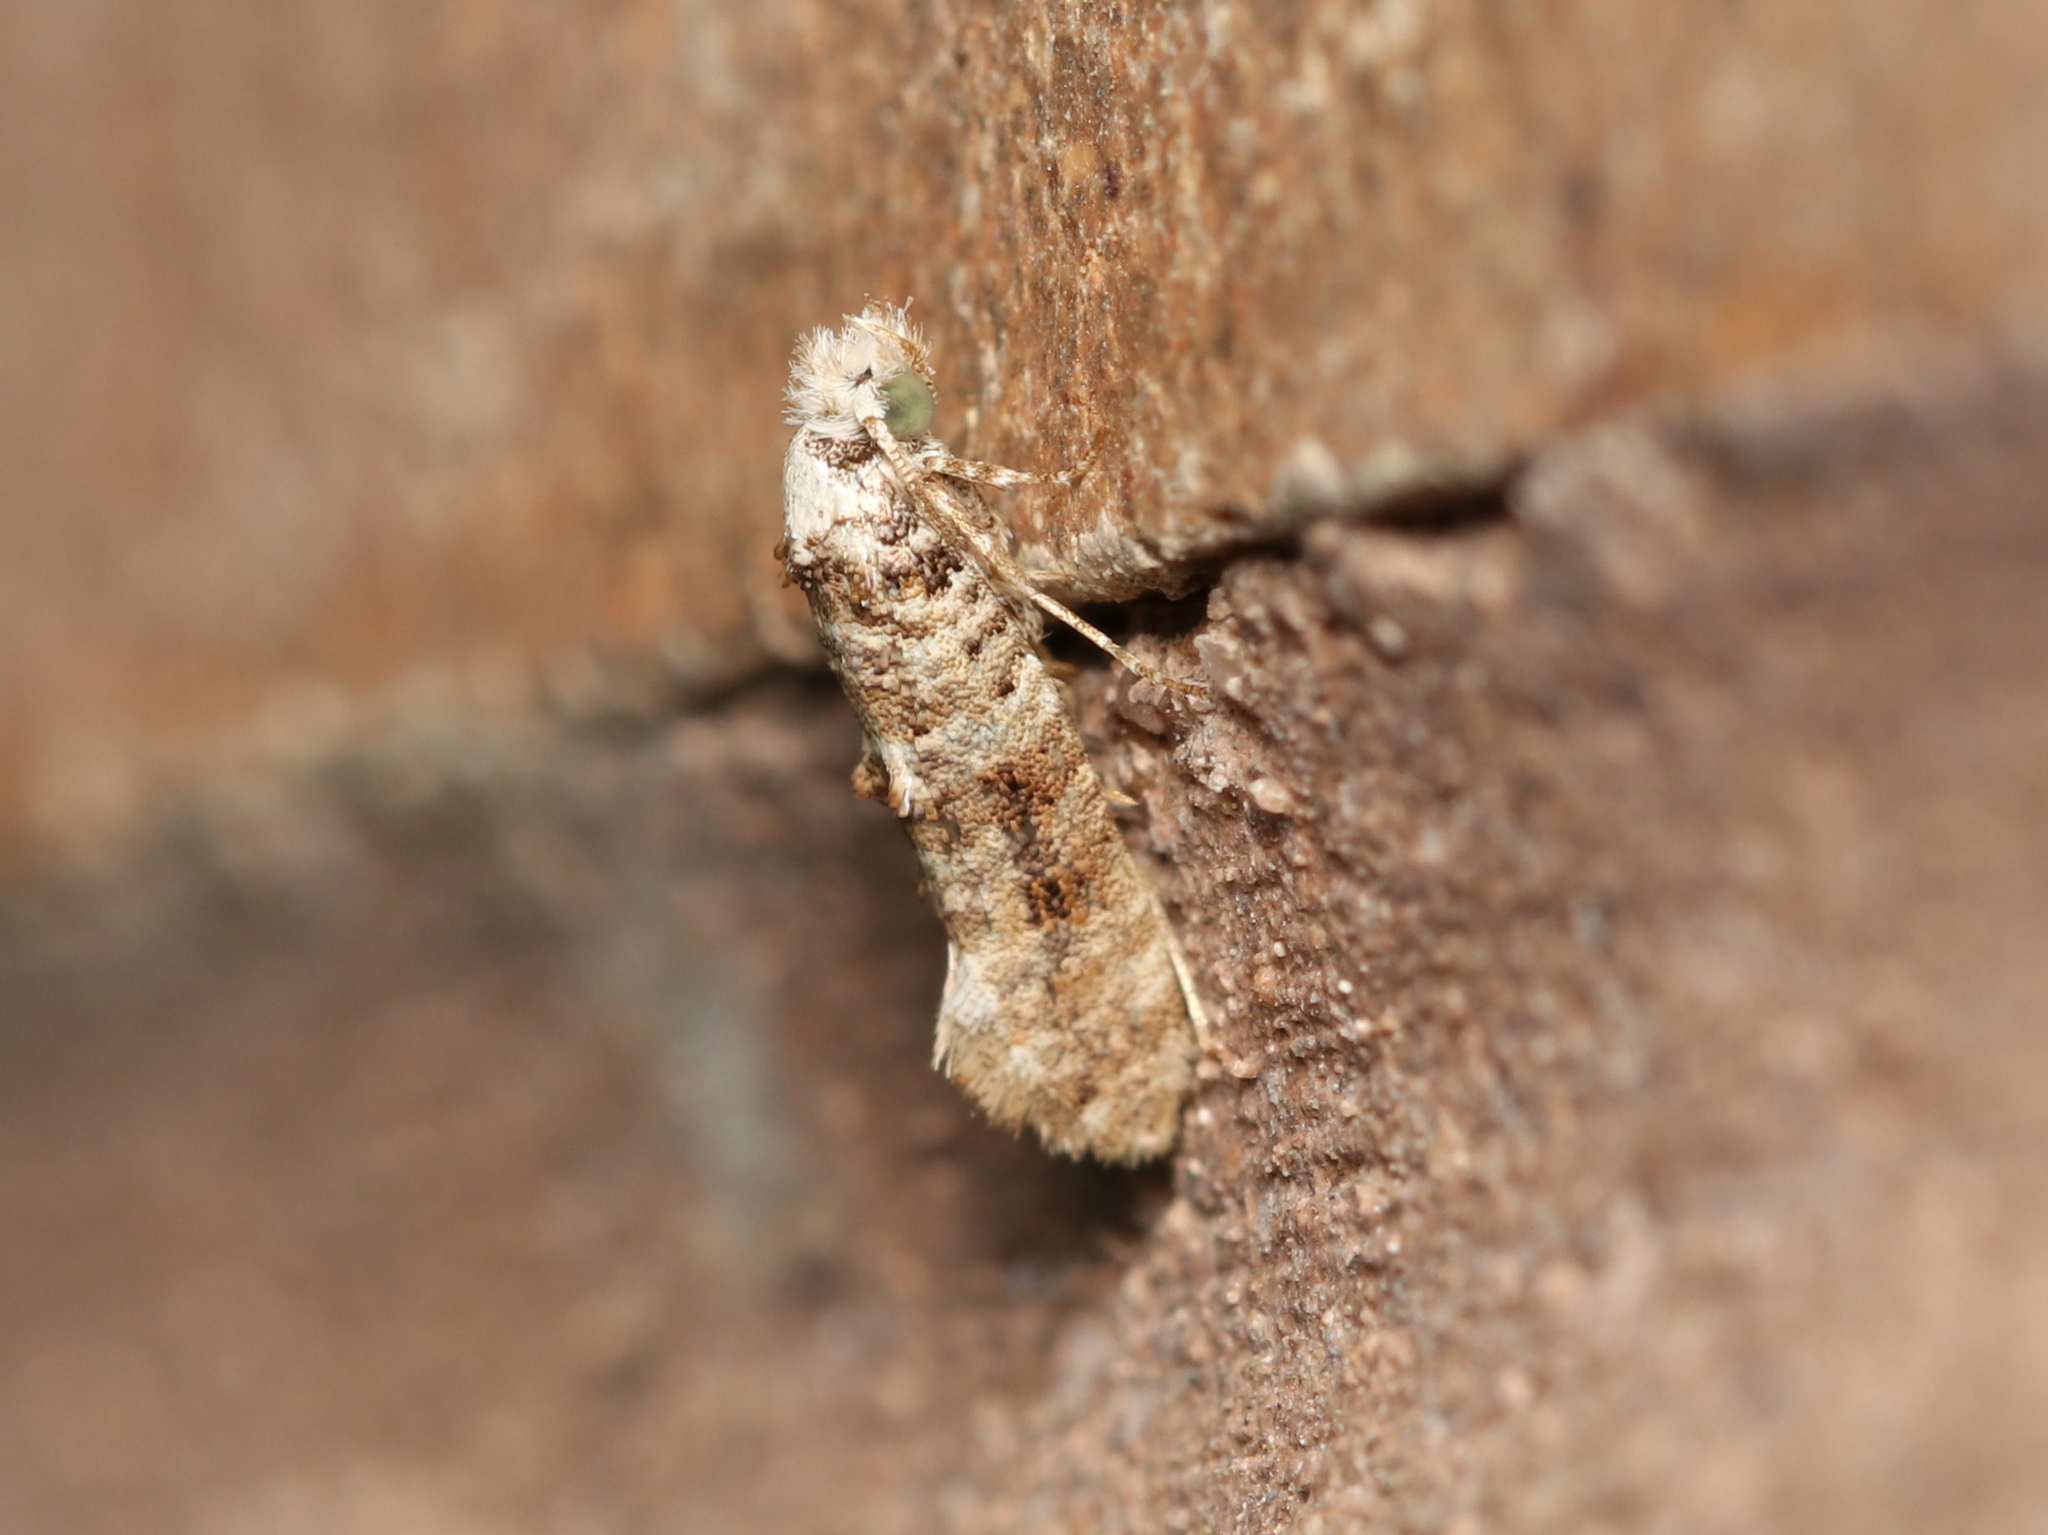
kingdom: Animalia
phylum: Arthropoda
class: Insecta
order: Lepidoptera
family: Tineidae
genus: Xylesthia
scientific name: Xylesthia pruniramiella
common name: Clemens' bark moth
